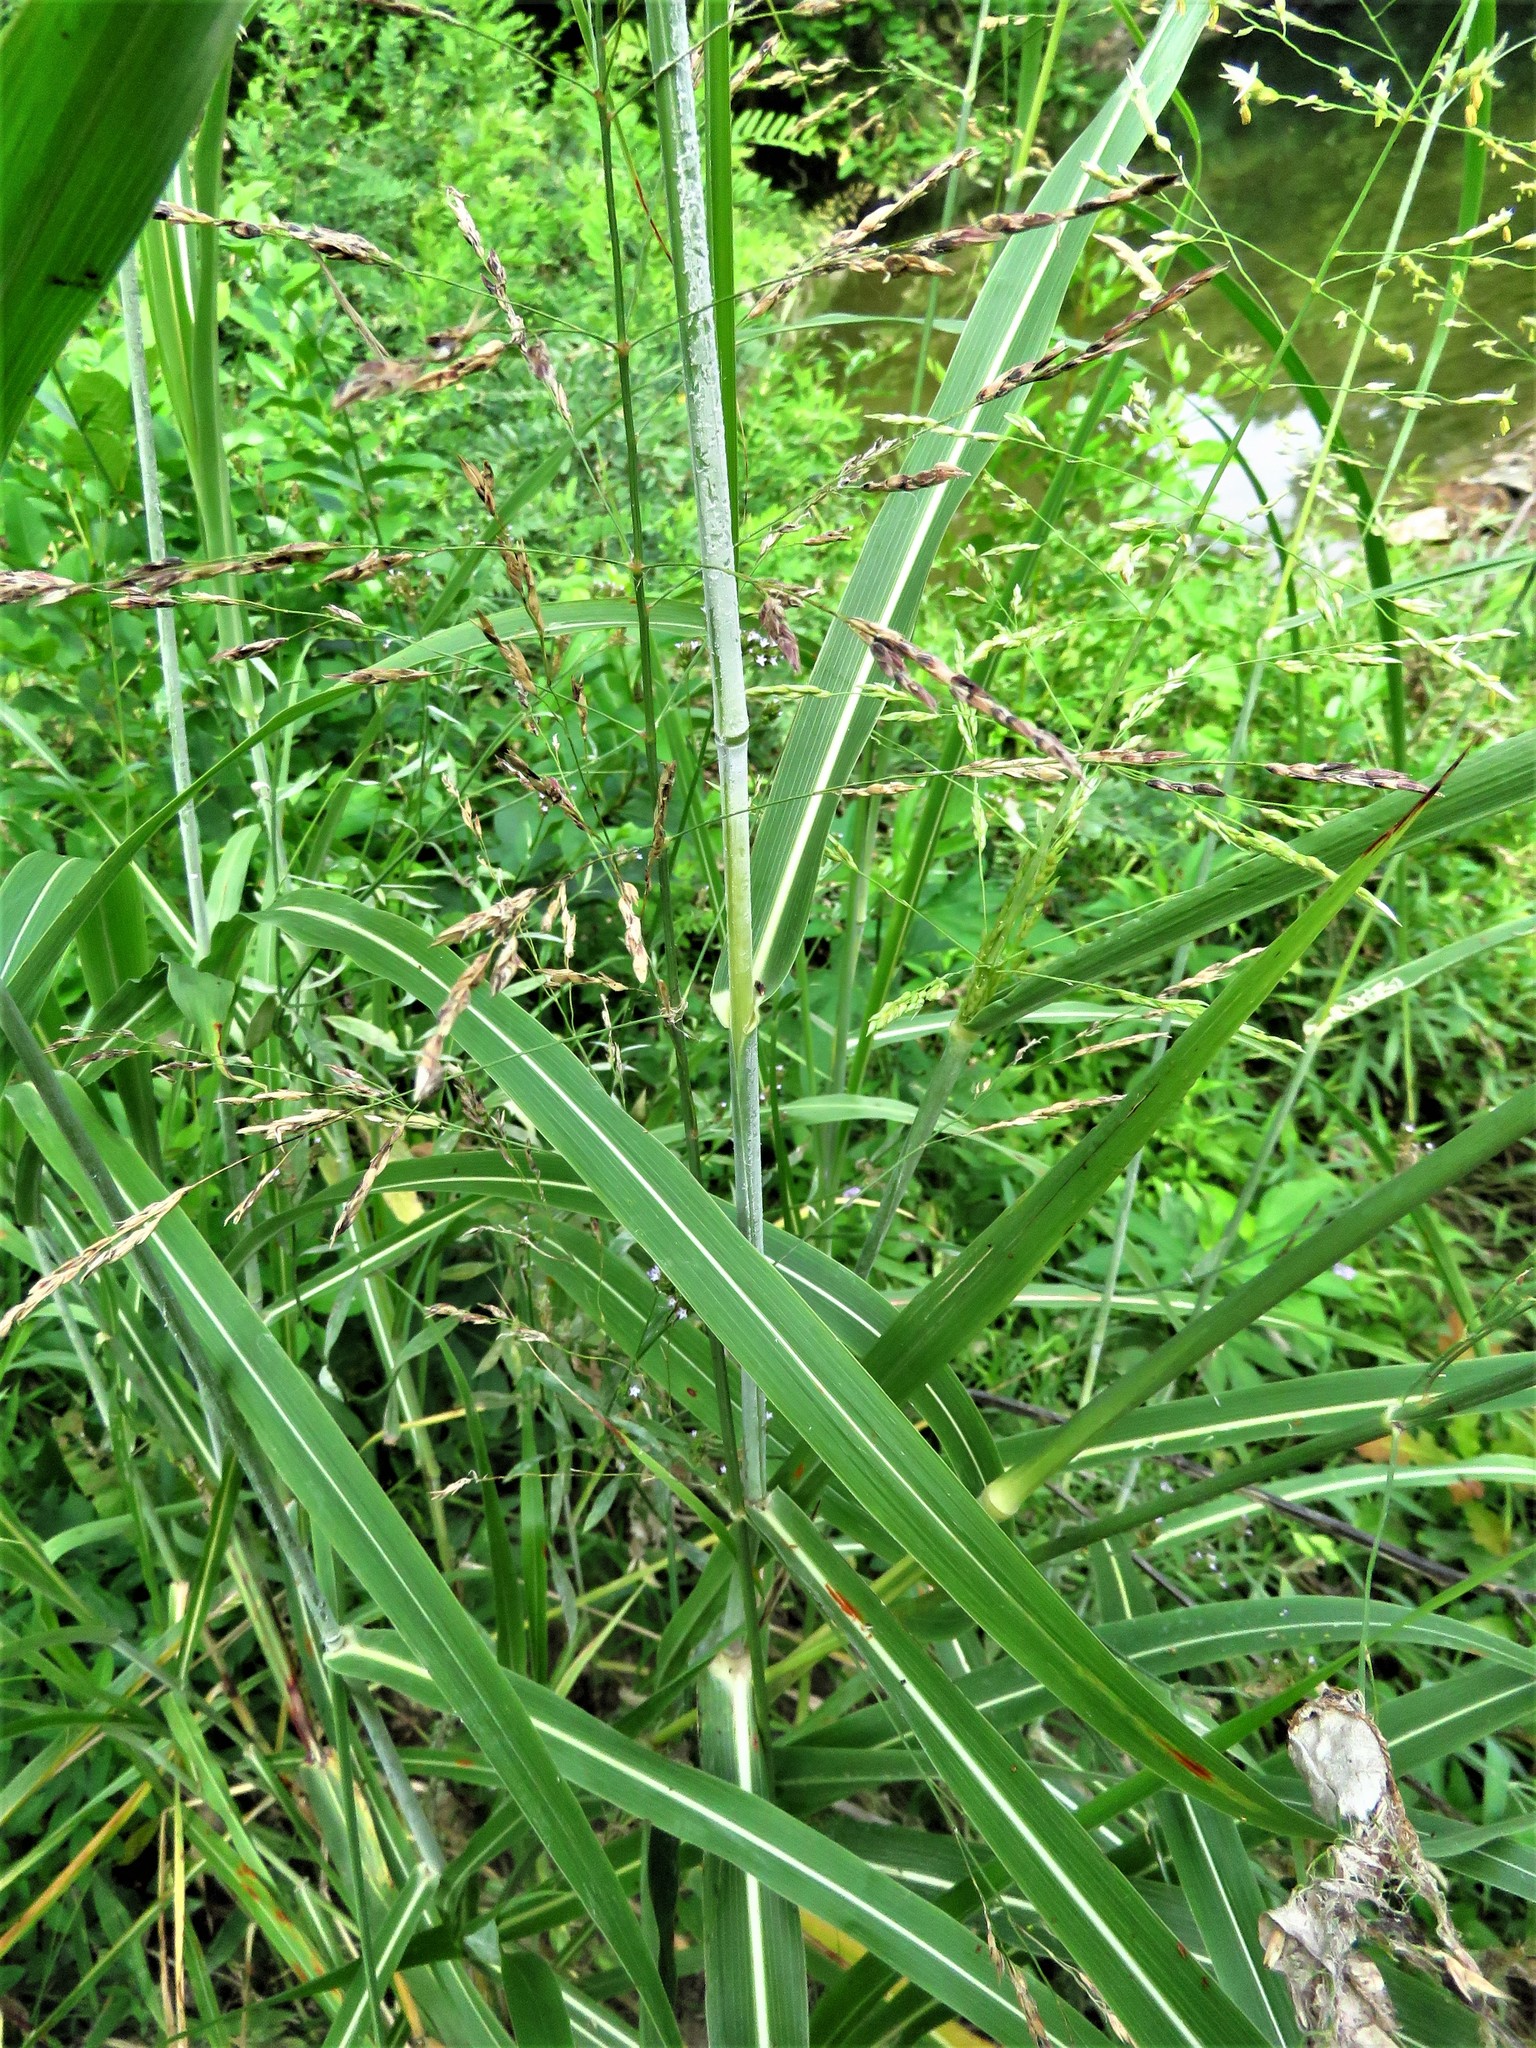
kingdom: Plantae
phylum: Tracheophyta
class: Liliopsida
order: Poales
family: Poaceae
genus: Sorghum
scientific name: Sorghum halepense
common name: Johnson-grass
